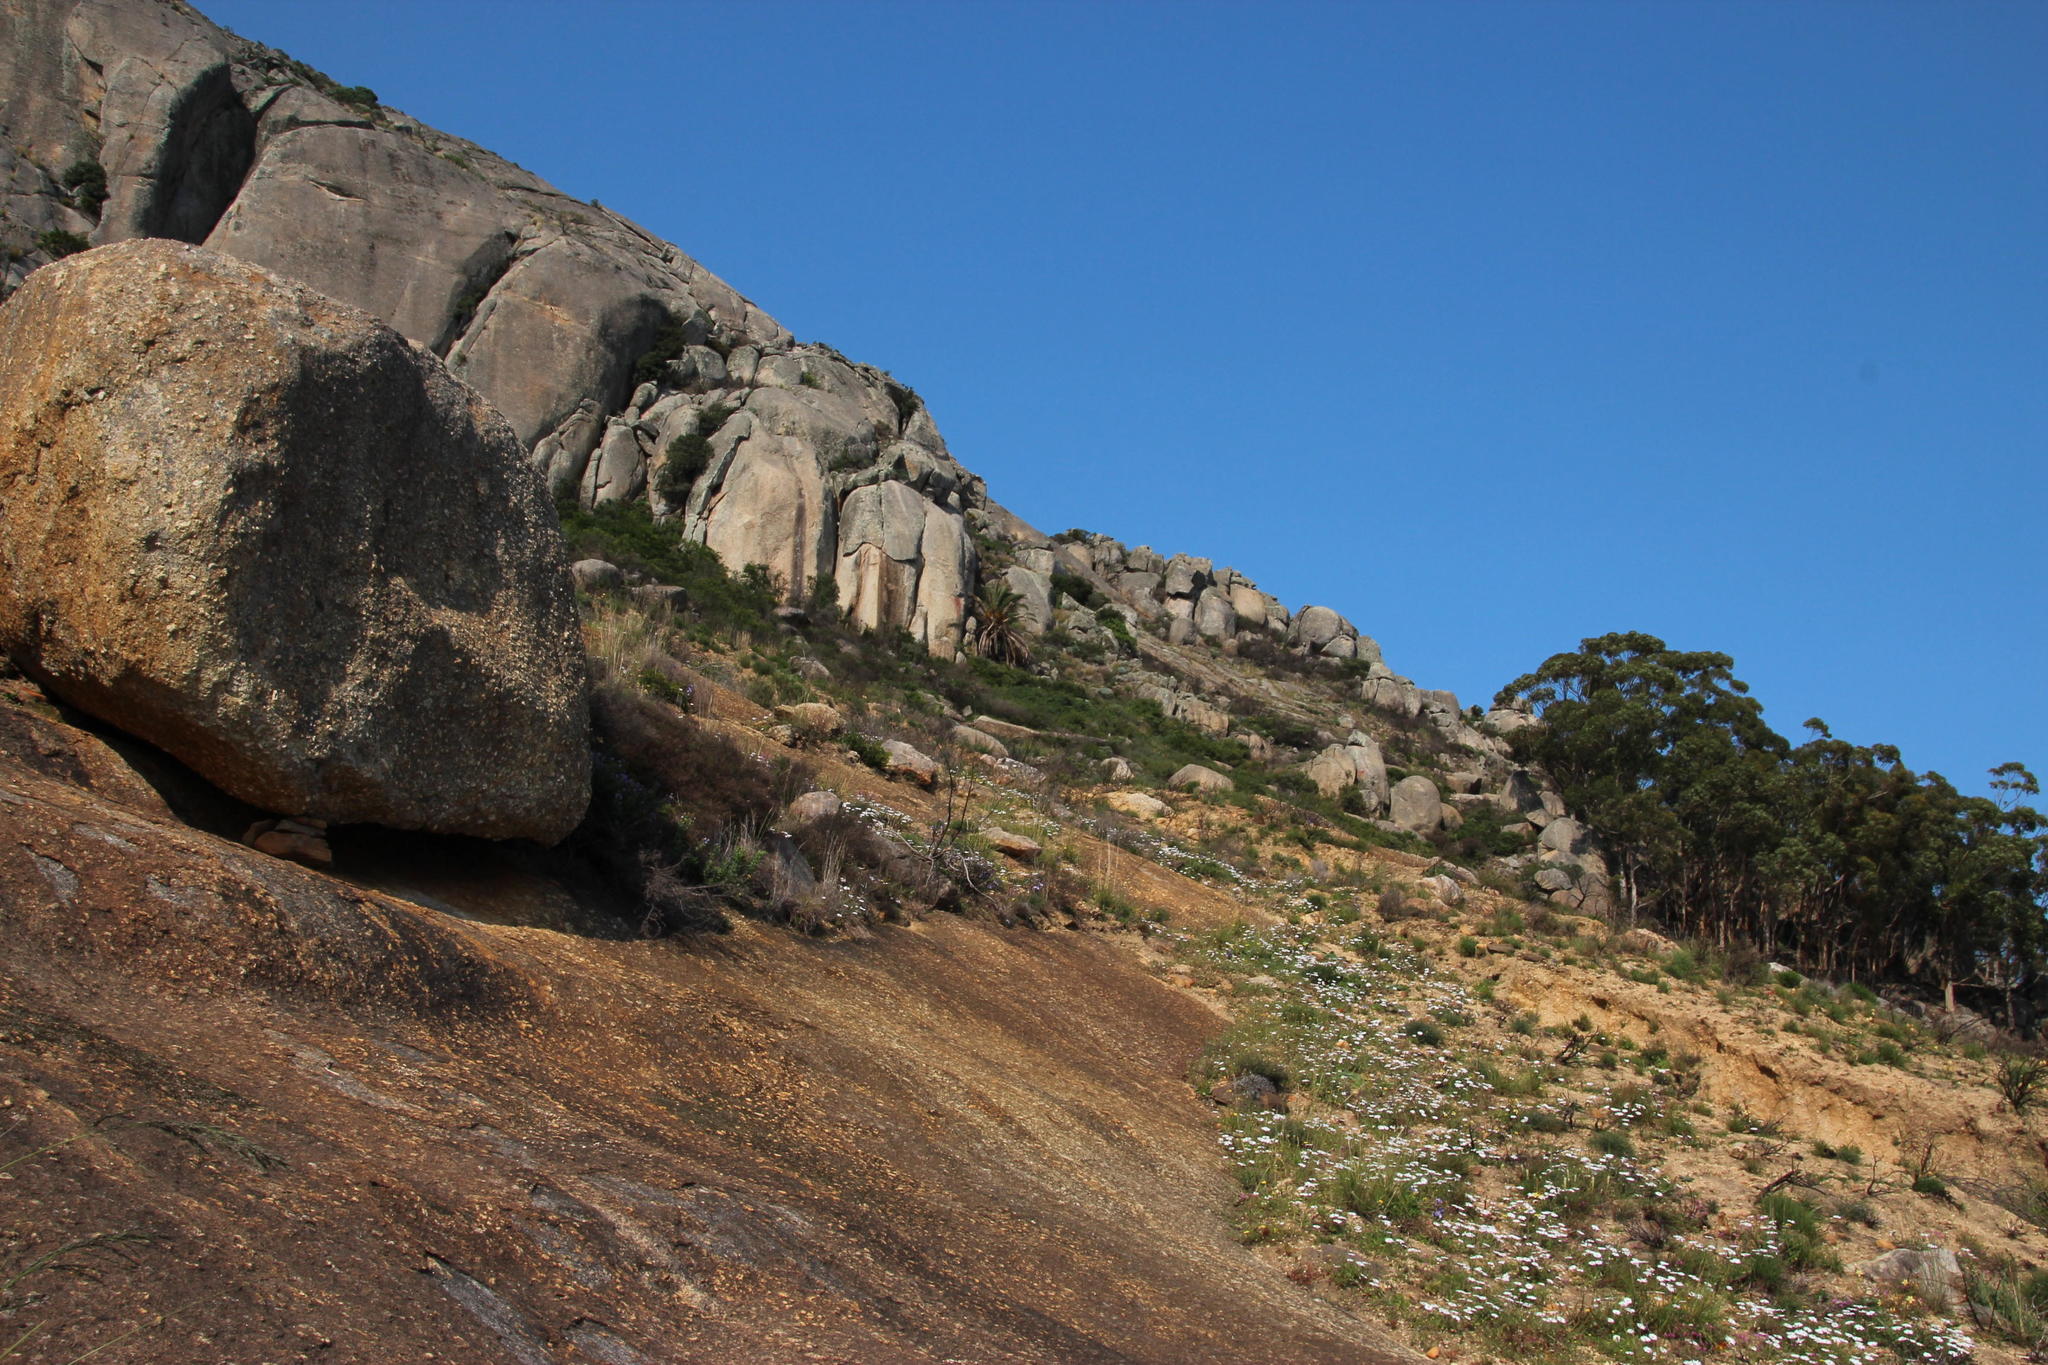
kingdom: Plantae
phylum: Tracheophyta
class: Liliopsida
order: Arecales
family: Arecaceae
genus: Phoenix
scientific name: Phoenix canariensis
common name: Canary island date palm
